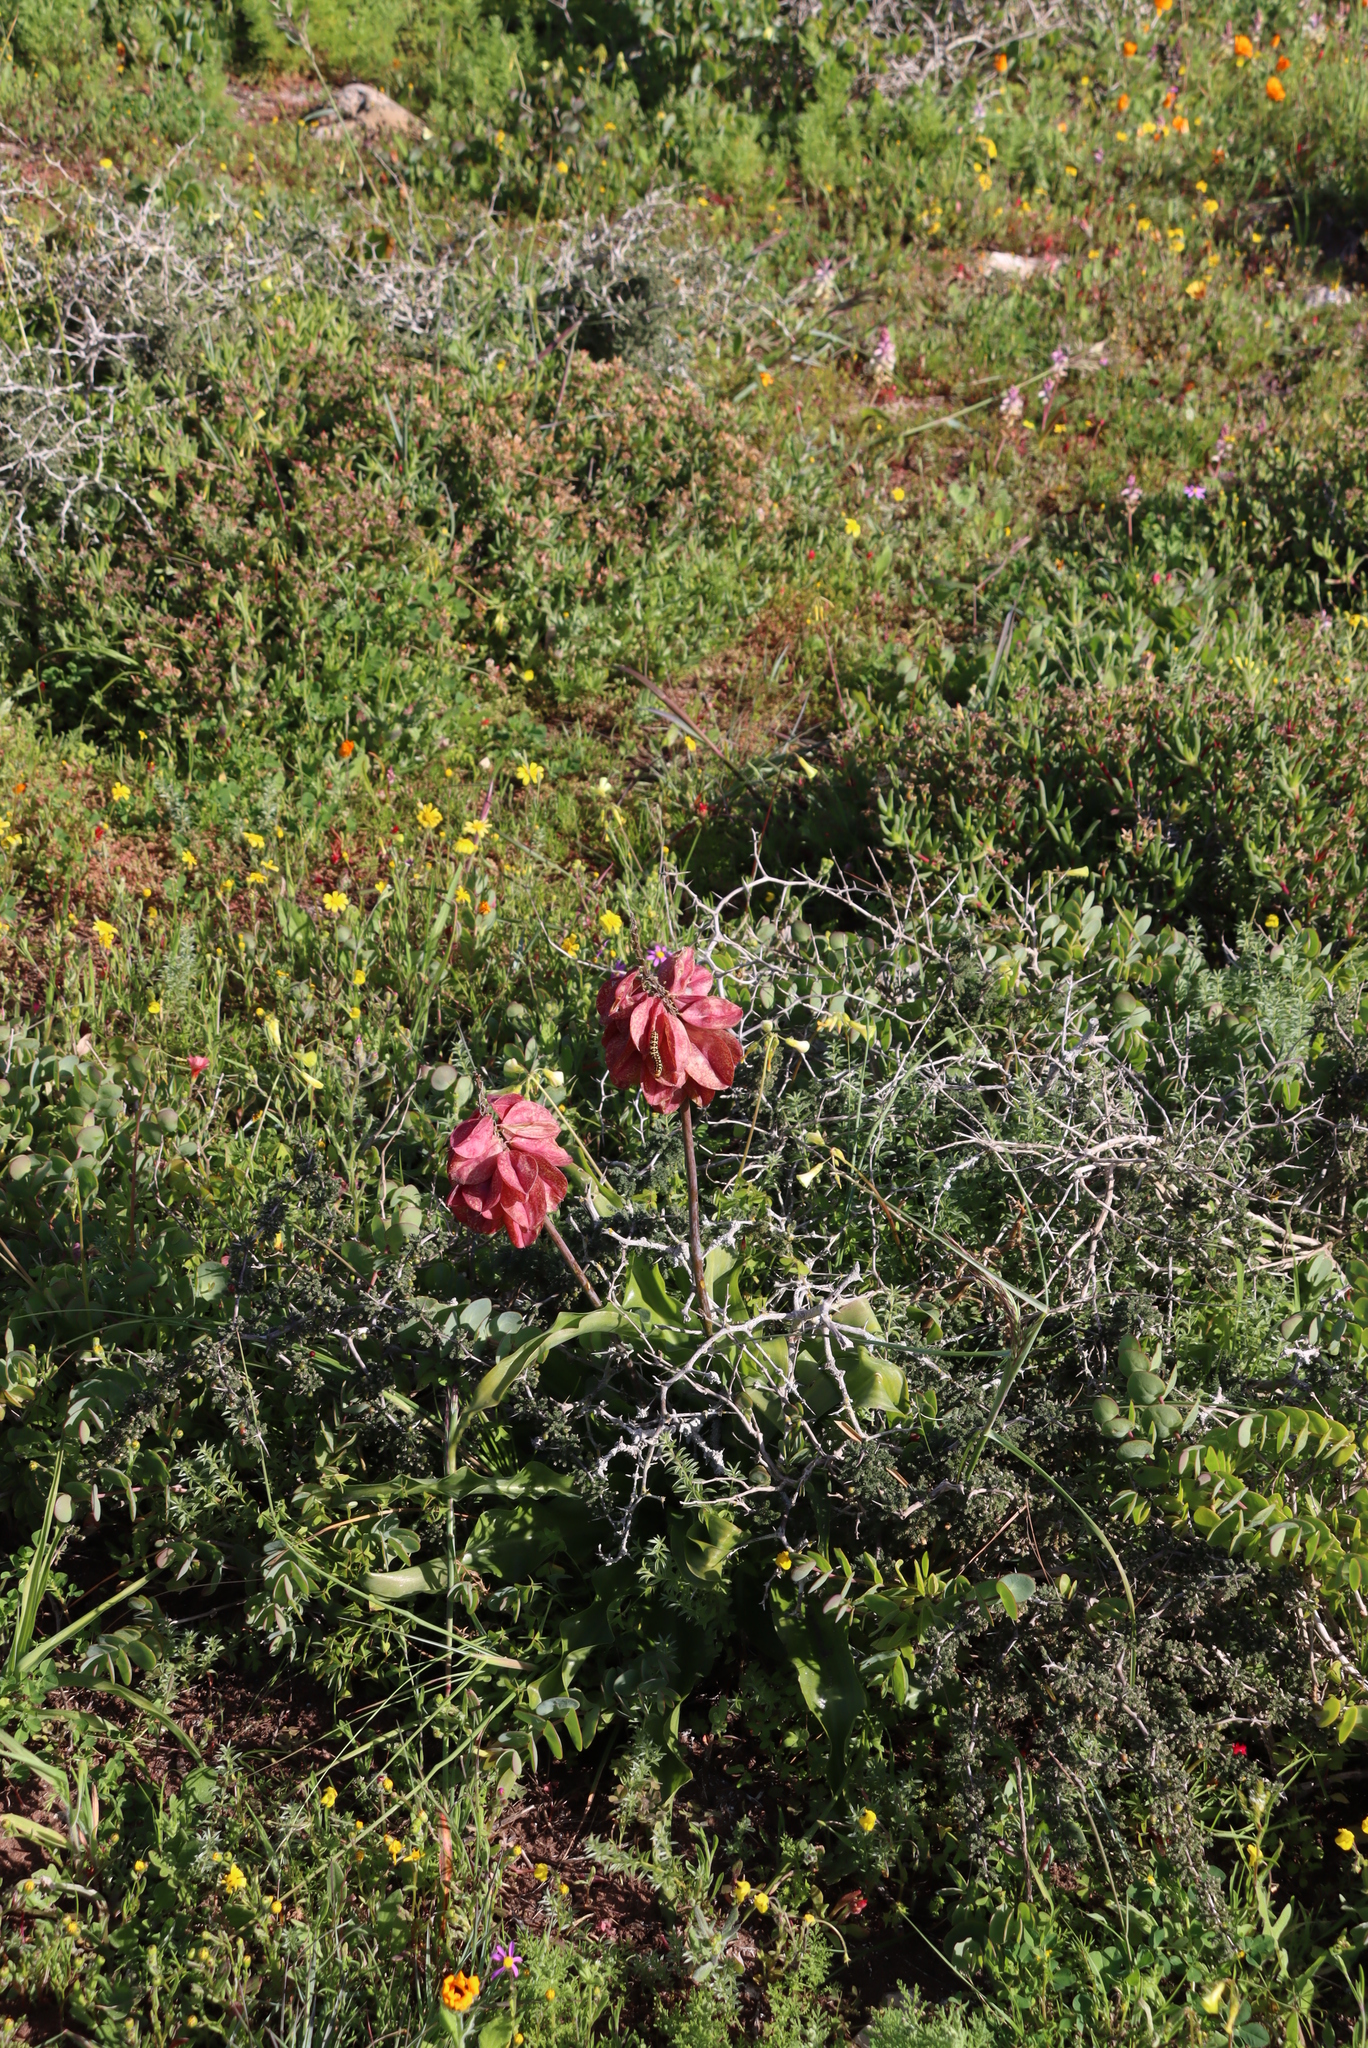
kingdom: Plantae
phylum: Tracheophyta
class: Liliopsida
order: Asparagales
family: Asparagaceae
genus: Veltheimia
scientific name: Veltheimia capensis
